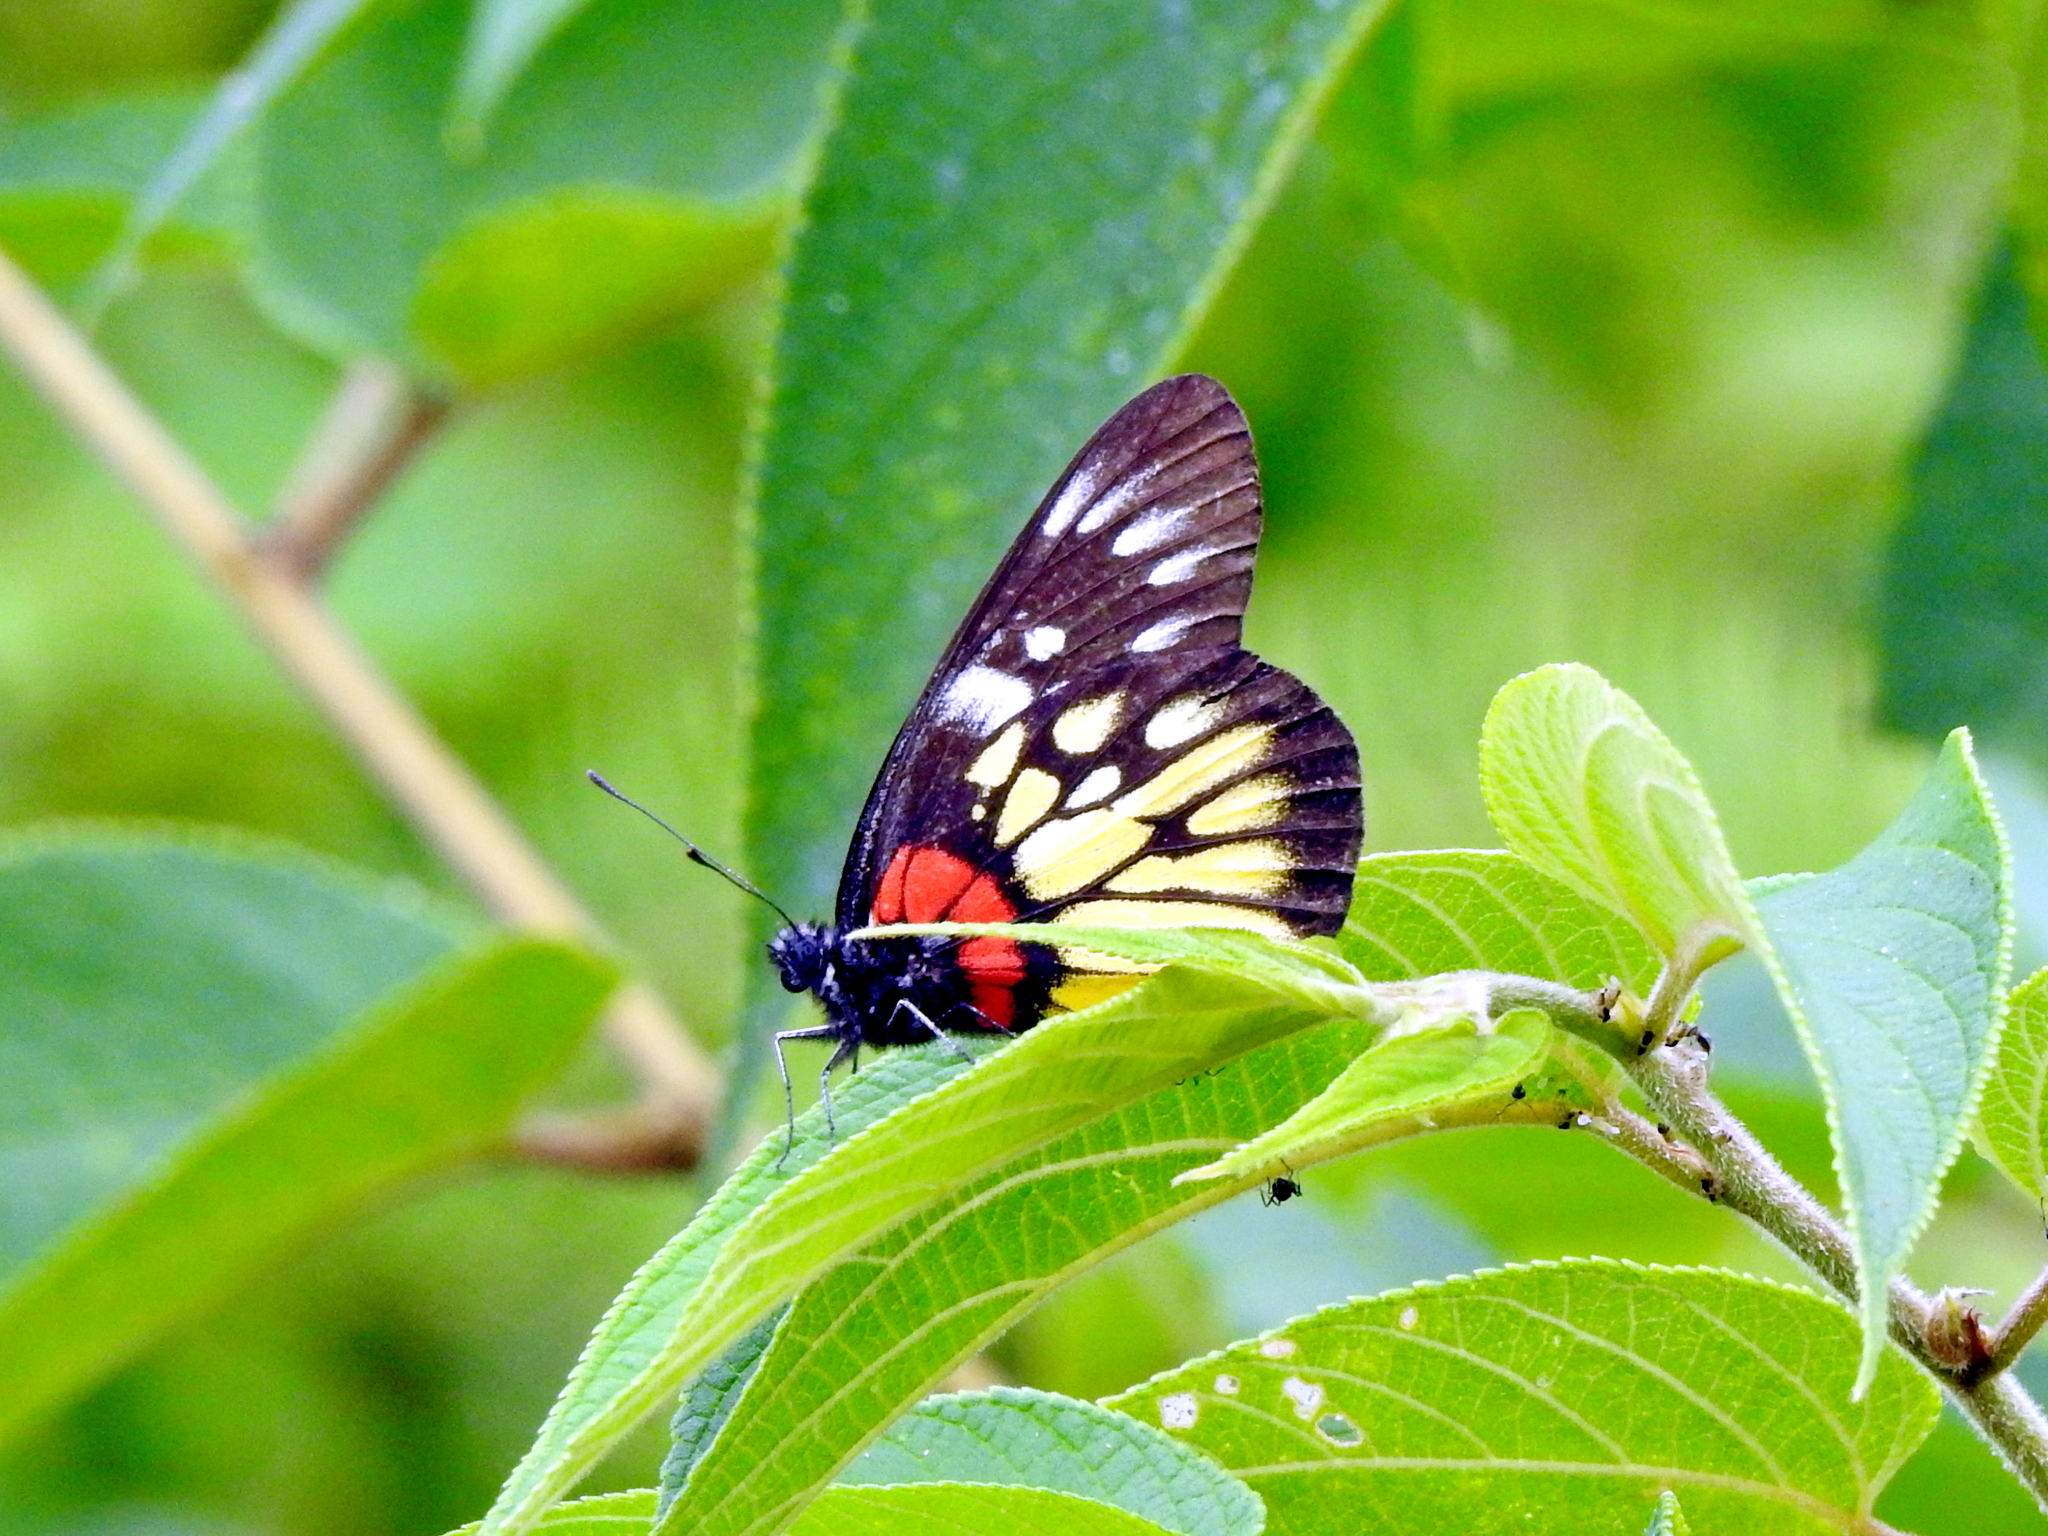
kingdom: Animalia
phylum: Arthropoda
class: Insecta
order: Lepidoptera
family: Pieridae
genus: Delias
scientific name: Delias pasithoe
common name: Red-base jezebel
